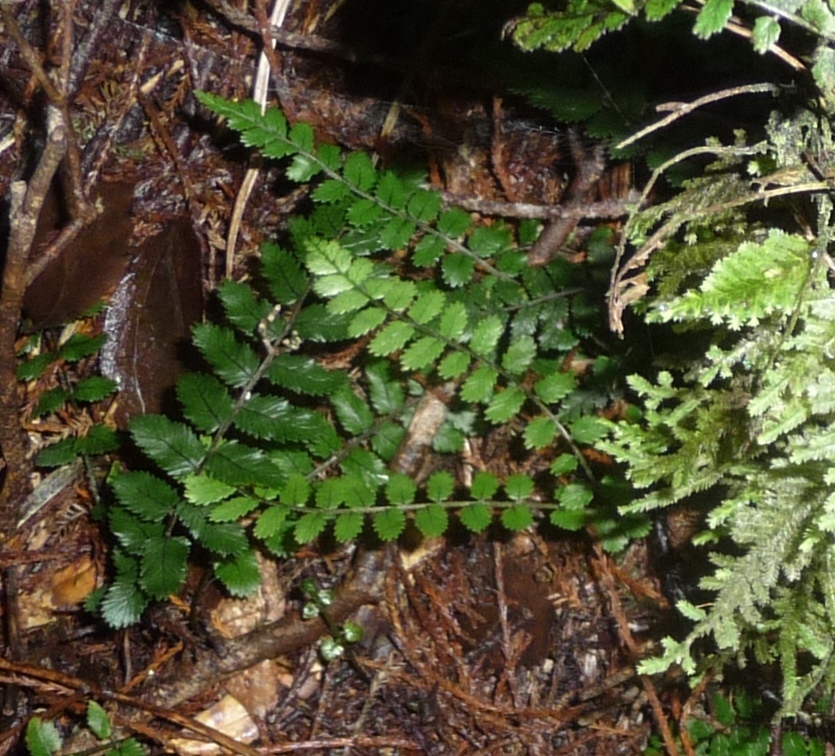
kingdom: Plantae
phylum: Tracheophyta
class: Polypodiopsida
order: Polypodiales
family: Blechnaceae
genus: Icarus
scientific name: Icarus filiformis
